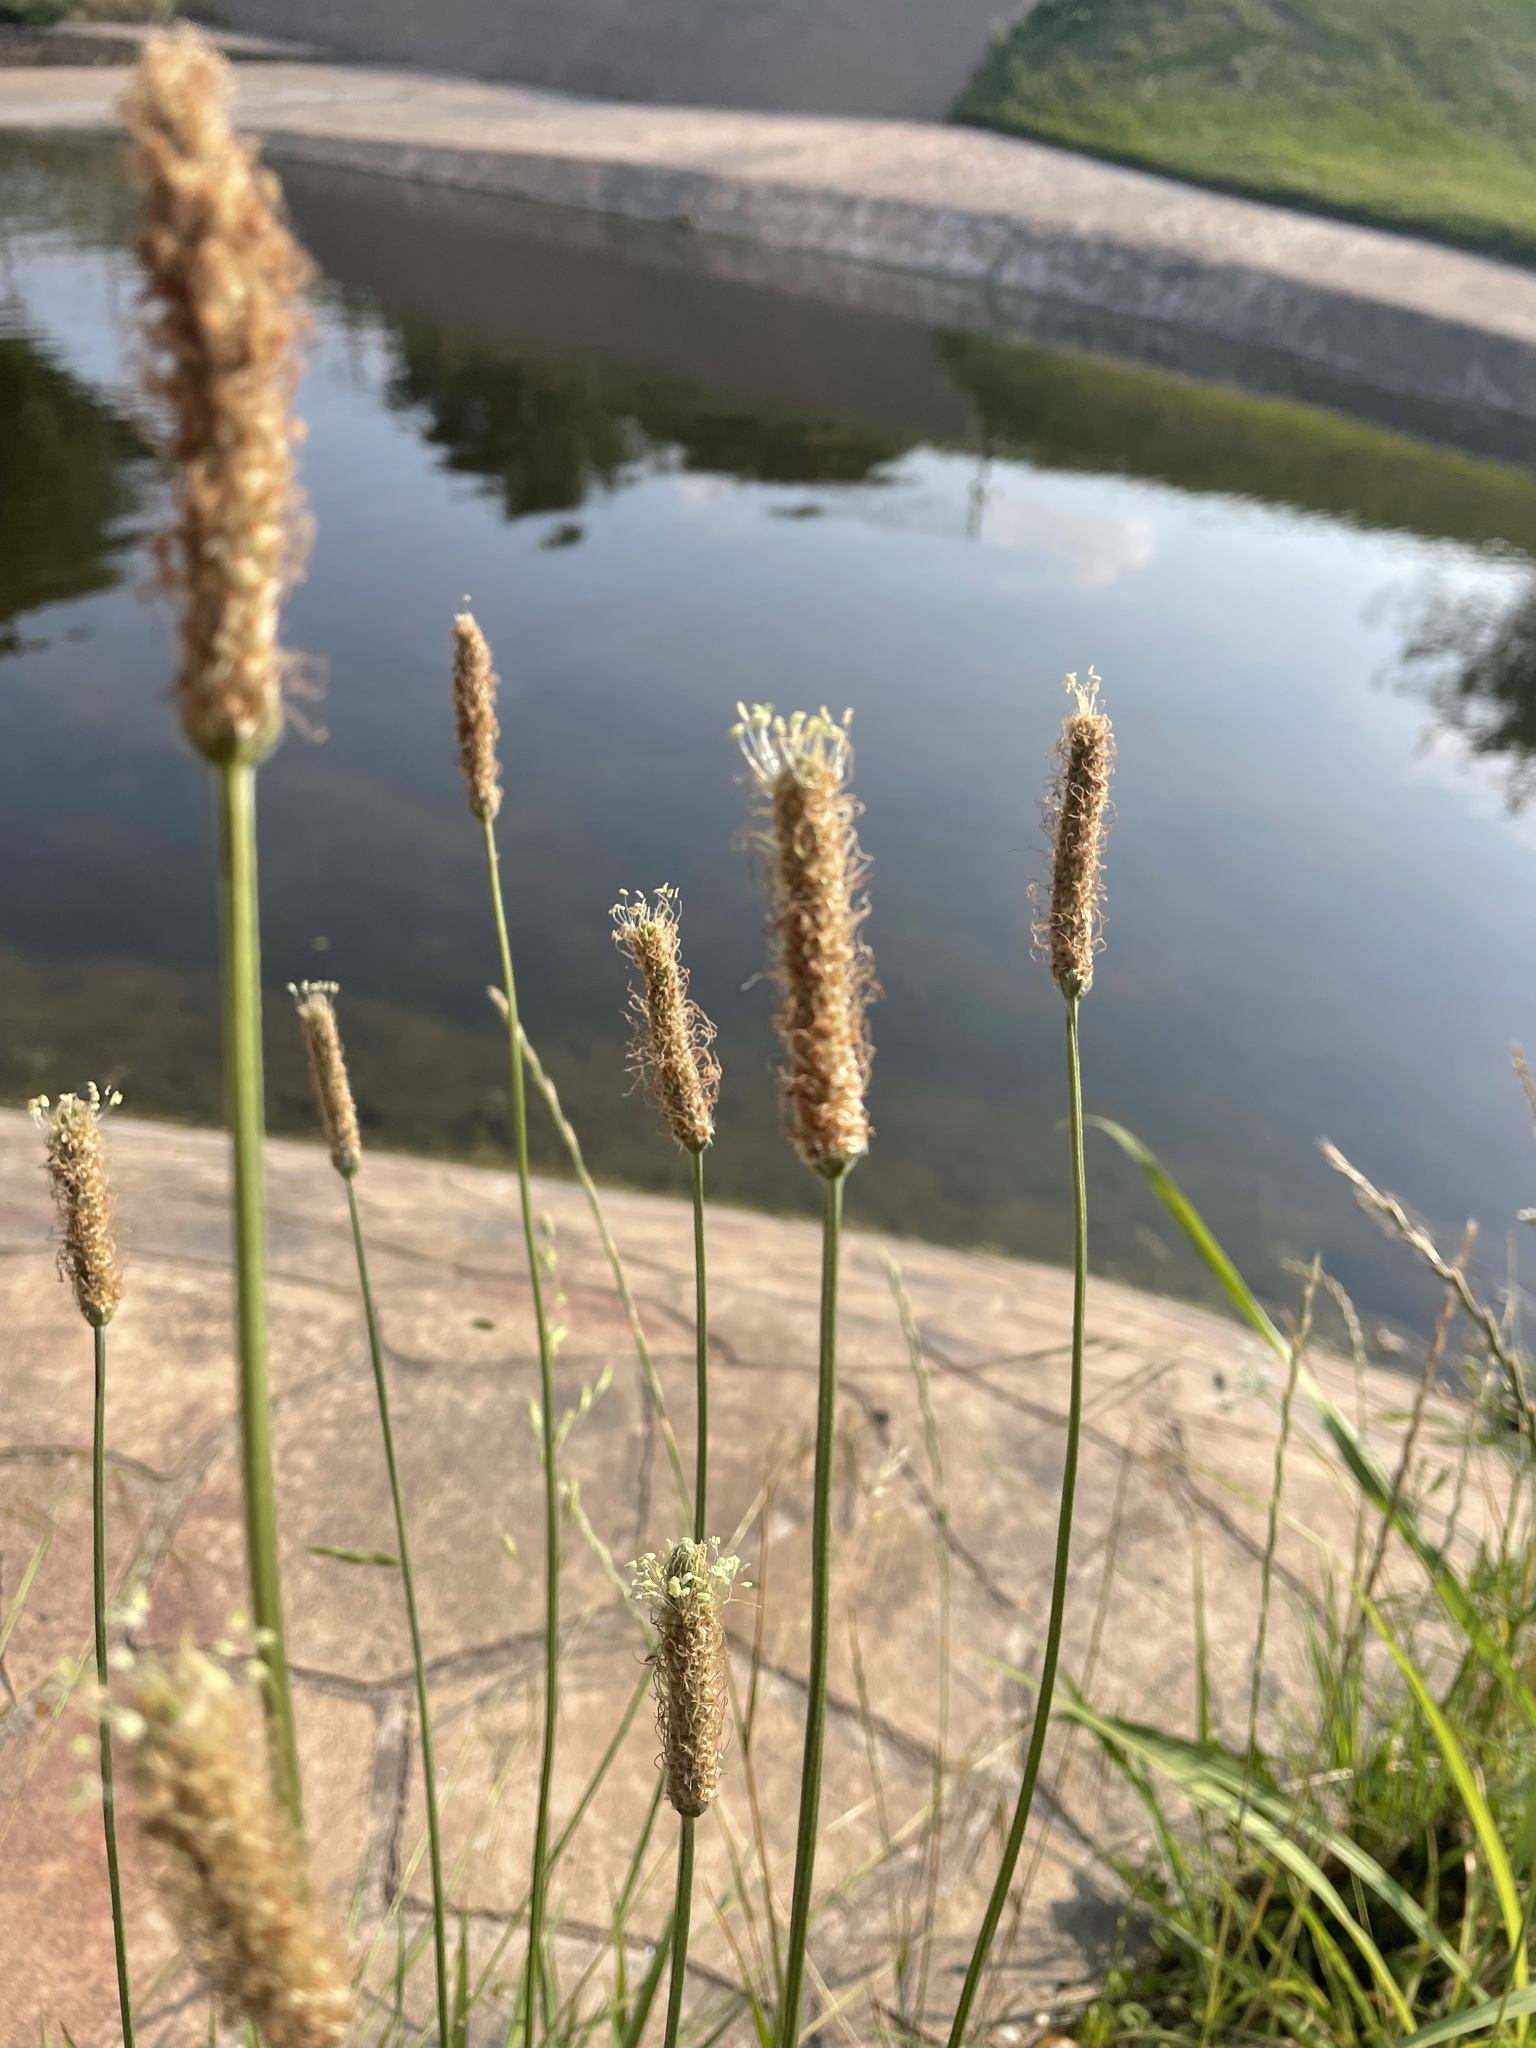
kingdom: Plantae
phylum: Tracheophyta
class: Magnoliopsida
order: Lamiales
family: Plantaginaceae
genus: Plantago
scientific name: Plantago lanceolata
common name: Ribwort plantain
